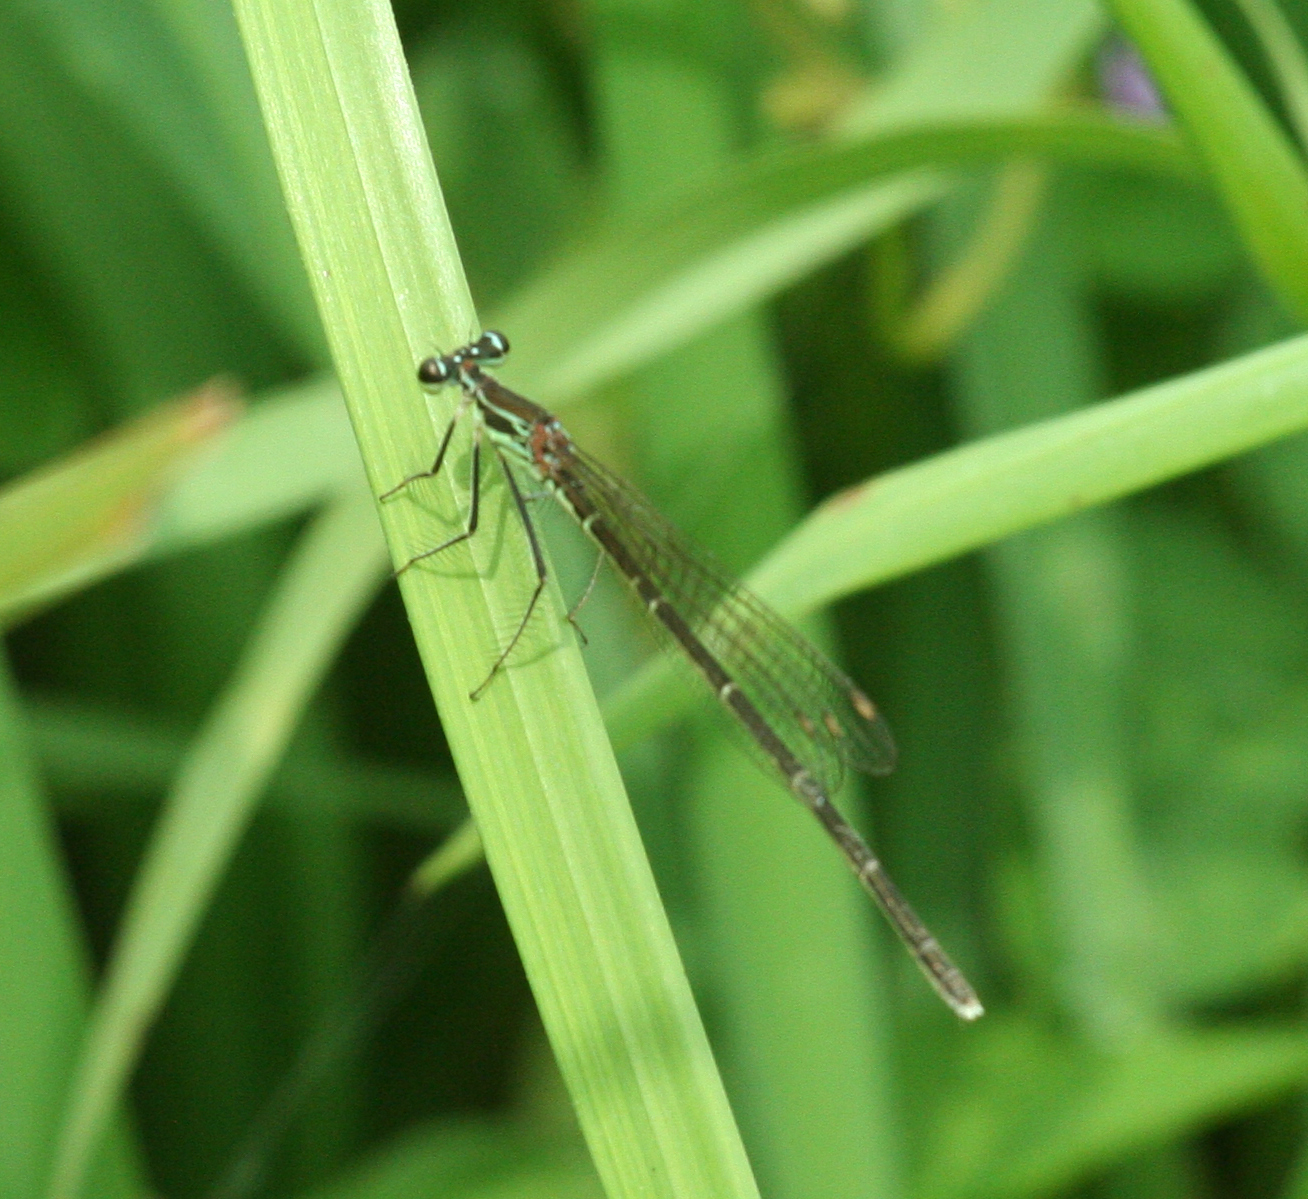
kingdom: Animalia
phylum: Arthropoda
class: Insecta
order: Odonata
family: Platycnemididae
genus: Pseudocopera
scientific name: Pseudocopera rubripes
